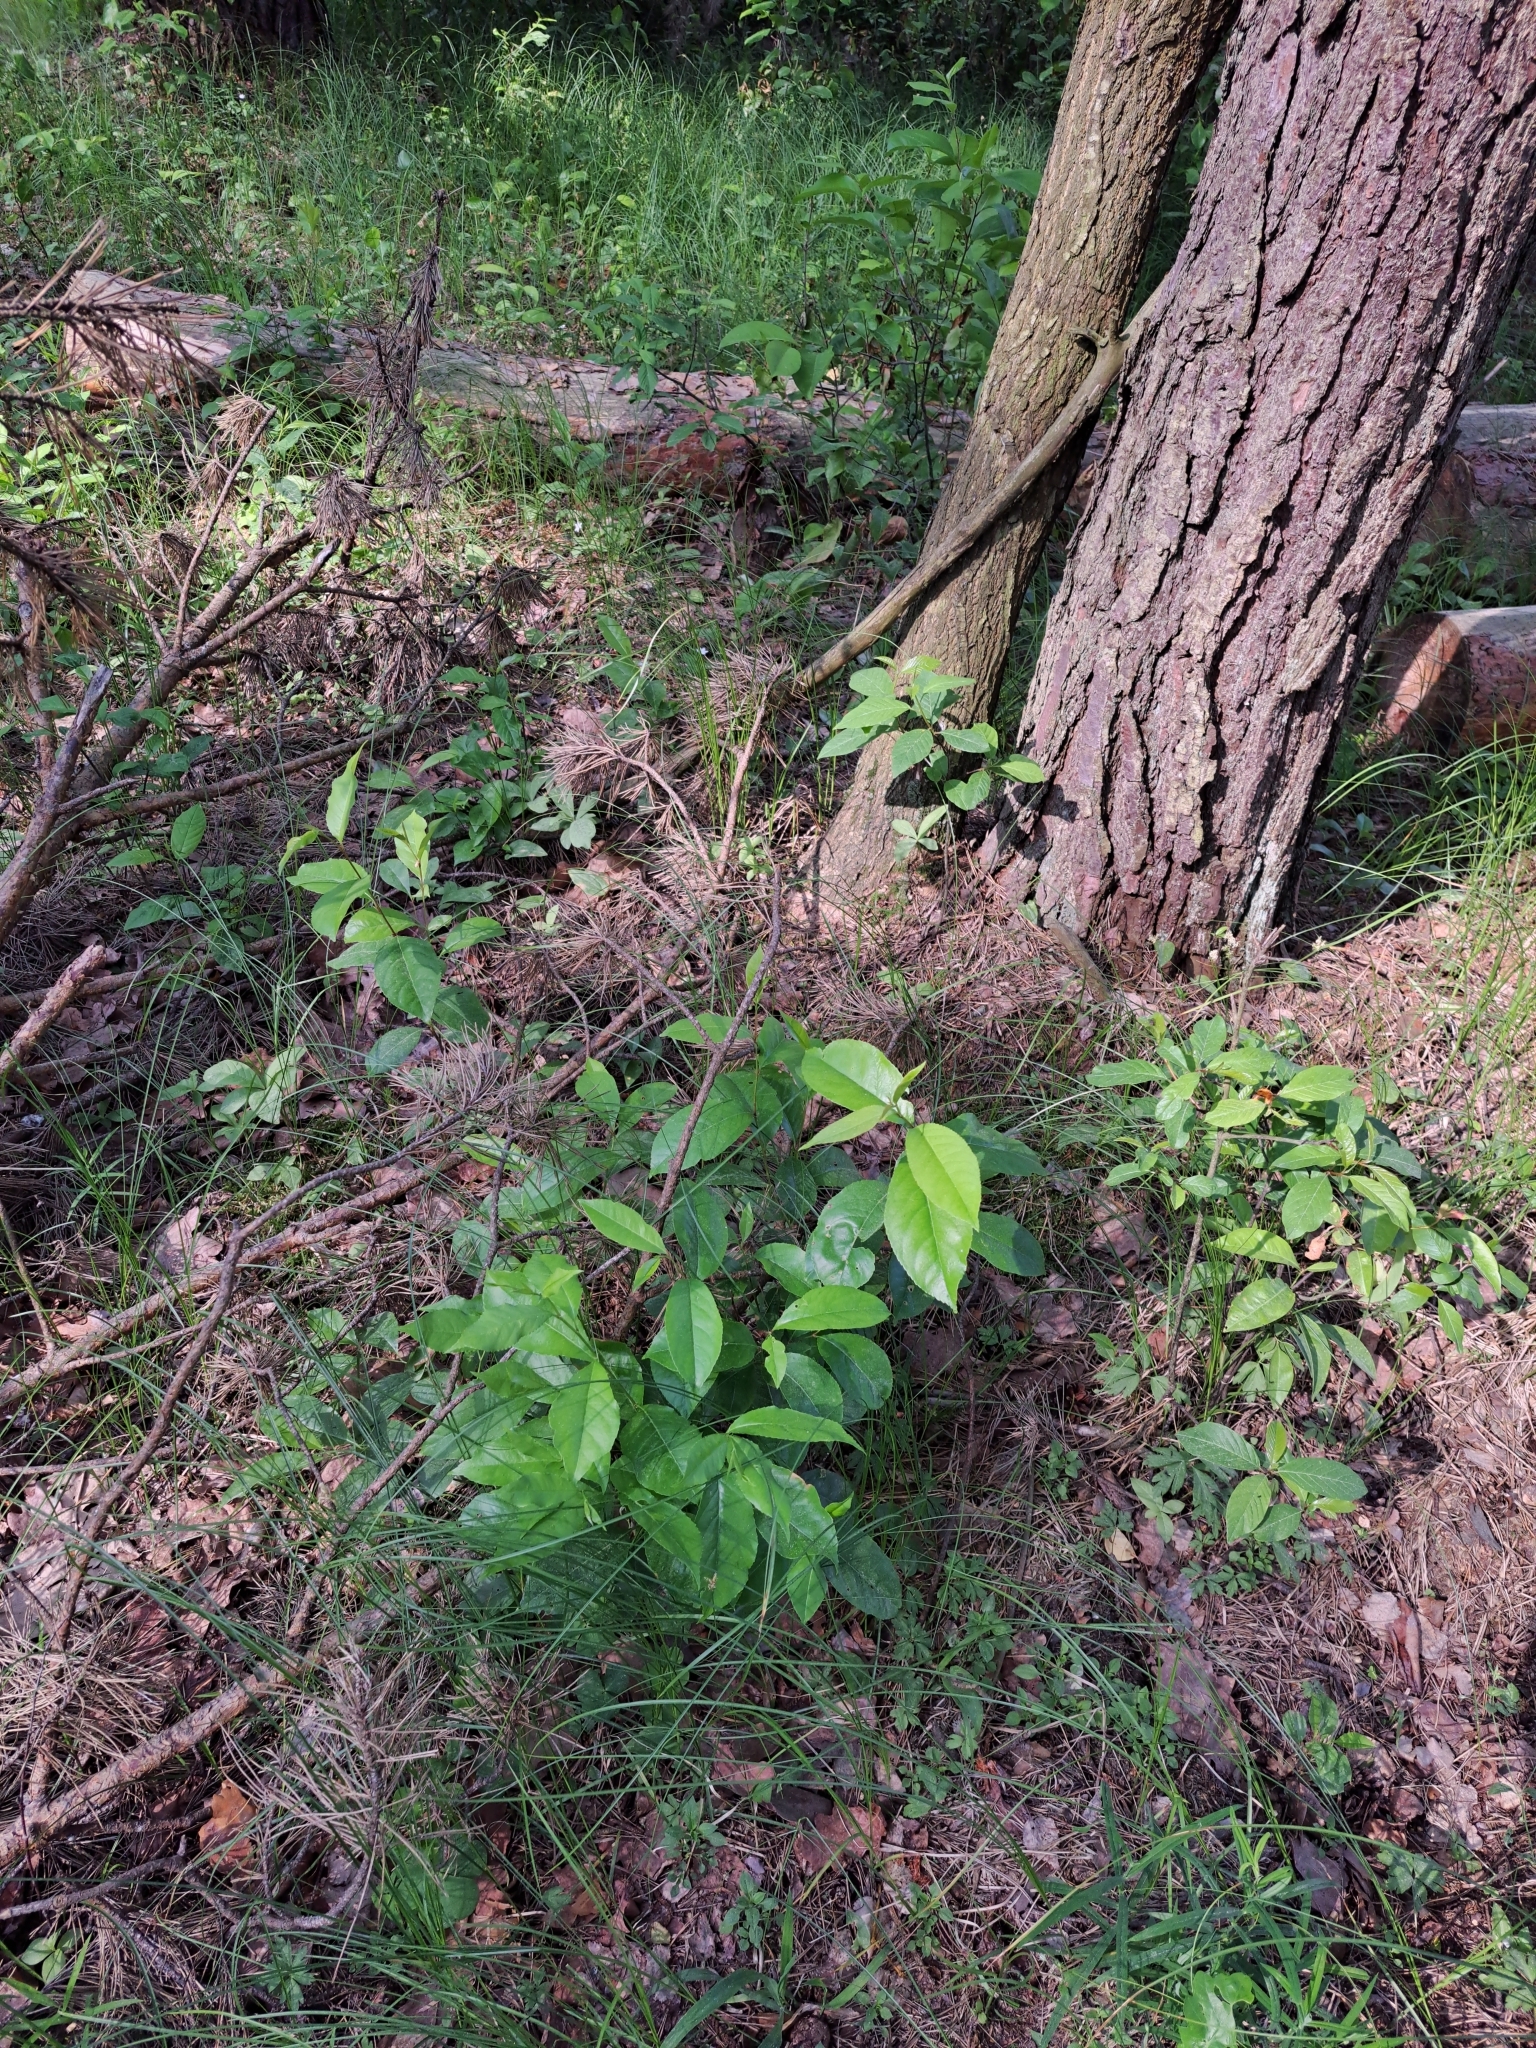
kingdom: Plantae
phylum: Tracheophyta
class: Magnoliopsida
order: Rosales
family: Rosaceae
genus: Prunus
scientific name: Prunus serotina
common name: Black cherry
